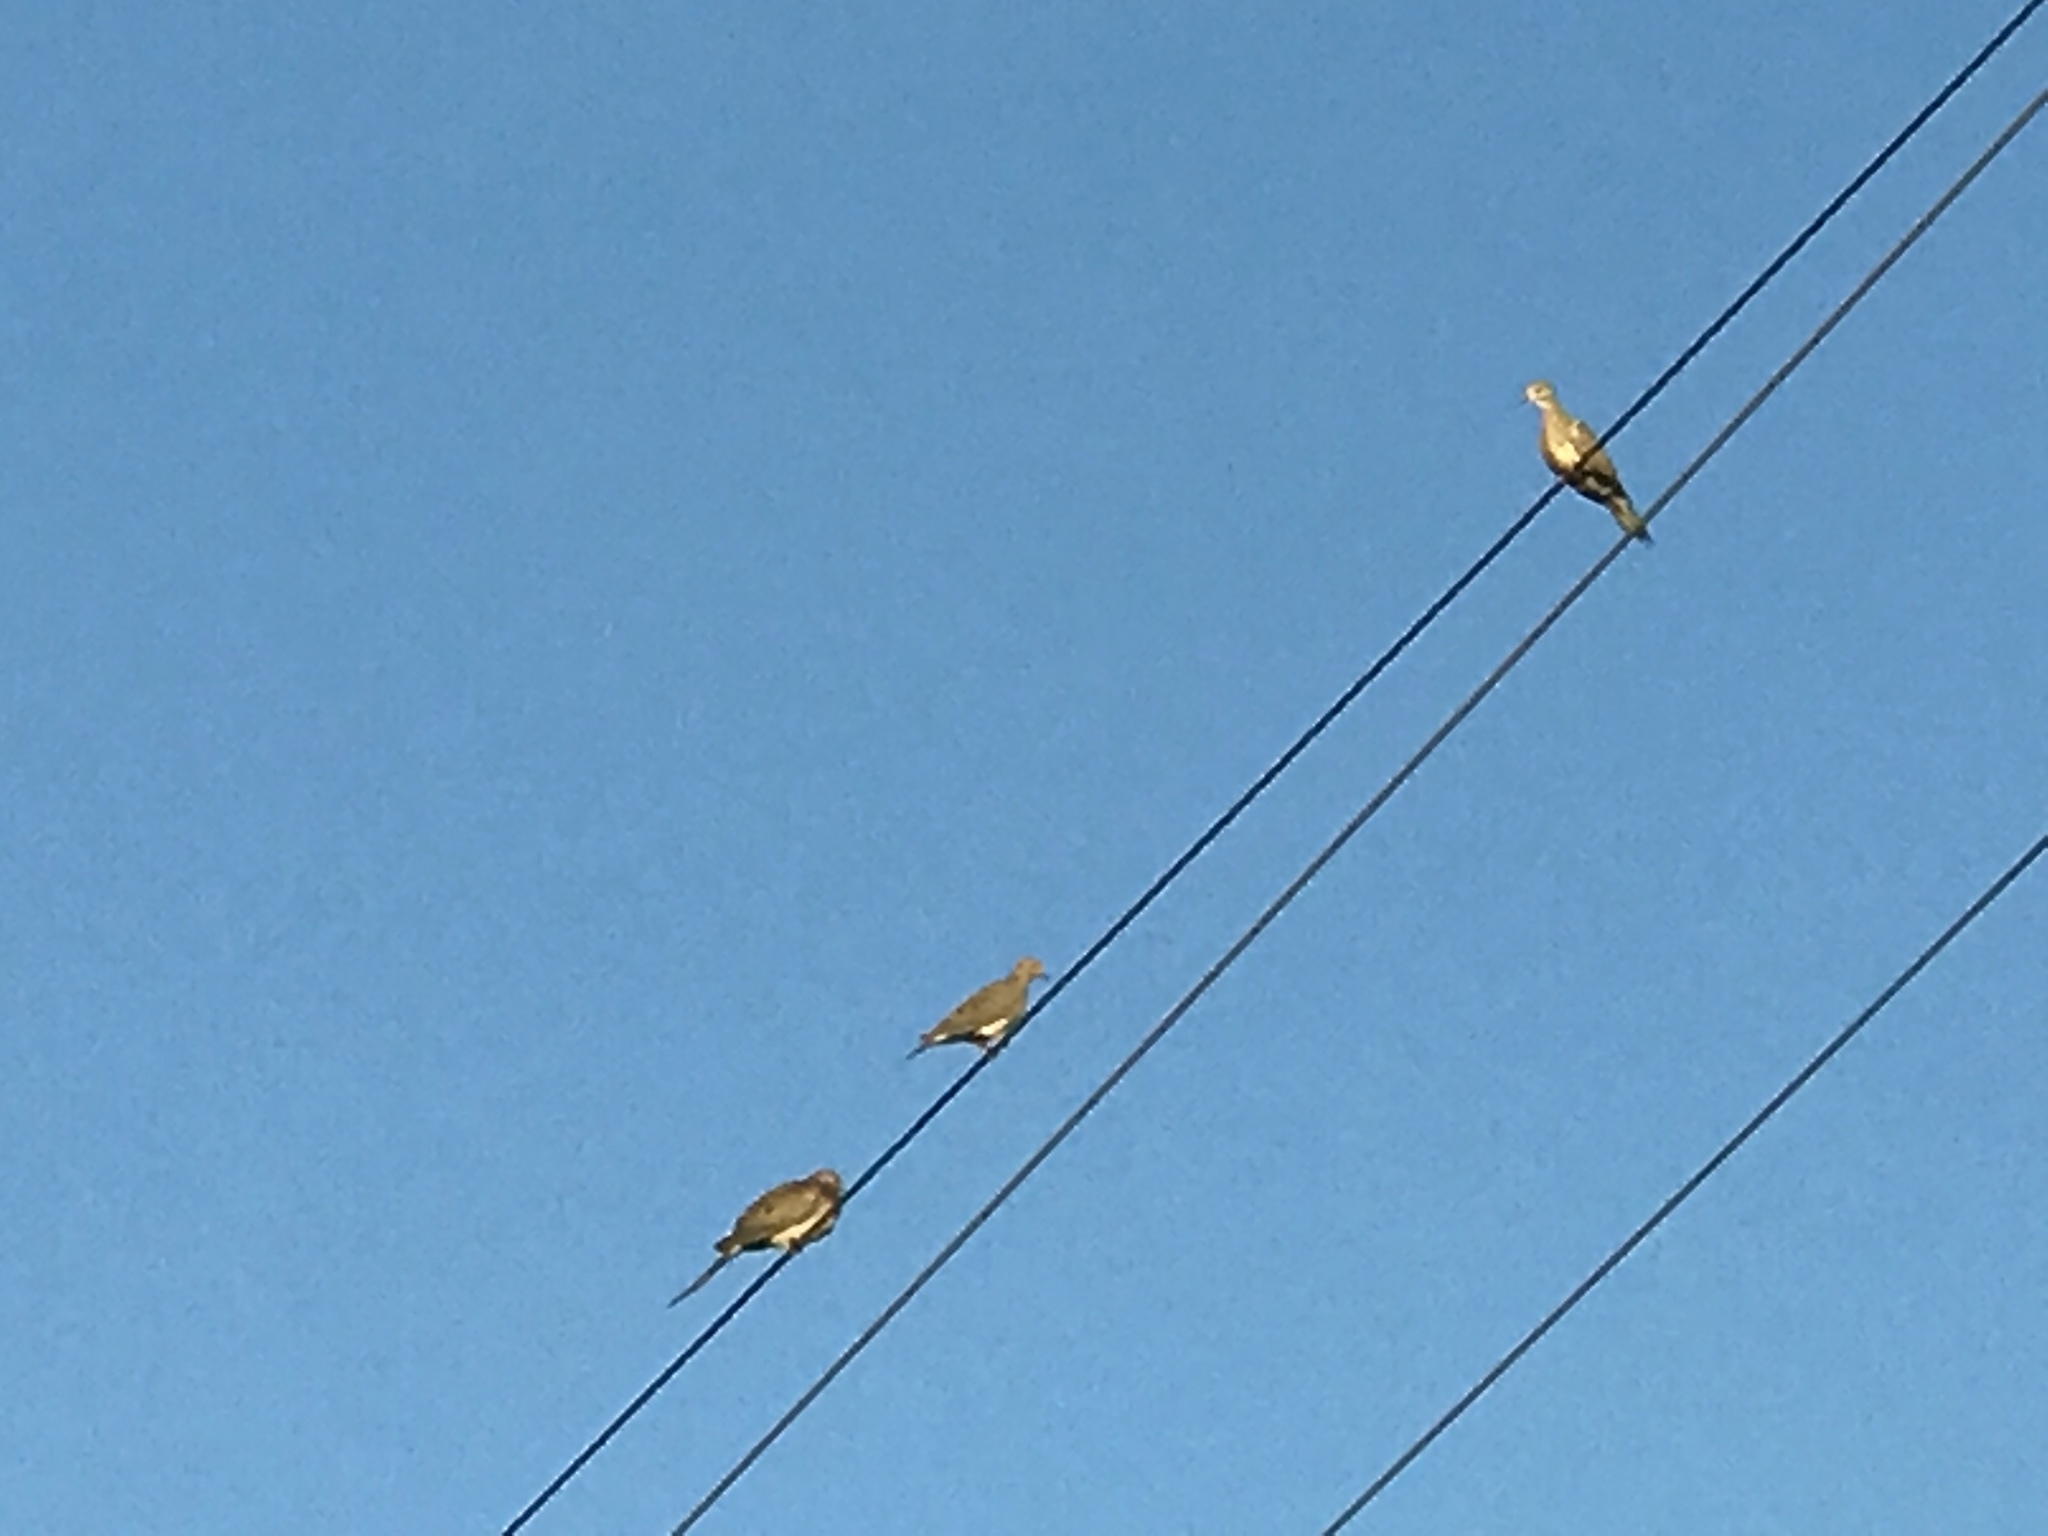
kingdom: Animalia
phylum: Chordata
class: Aves
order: Columbiformes
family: Columbidae
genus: Zenaida
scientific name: Zenaida macroura
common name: Mourning dove
